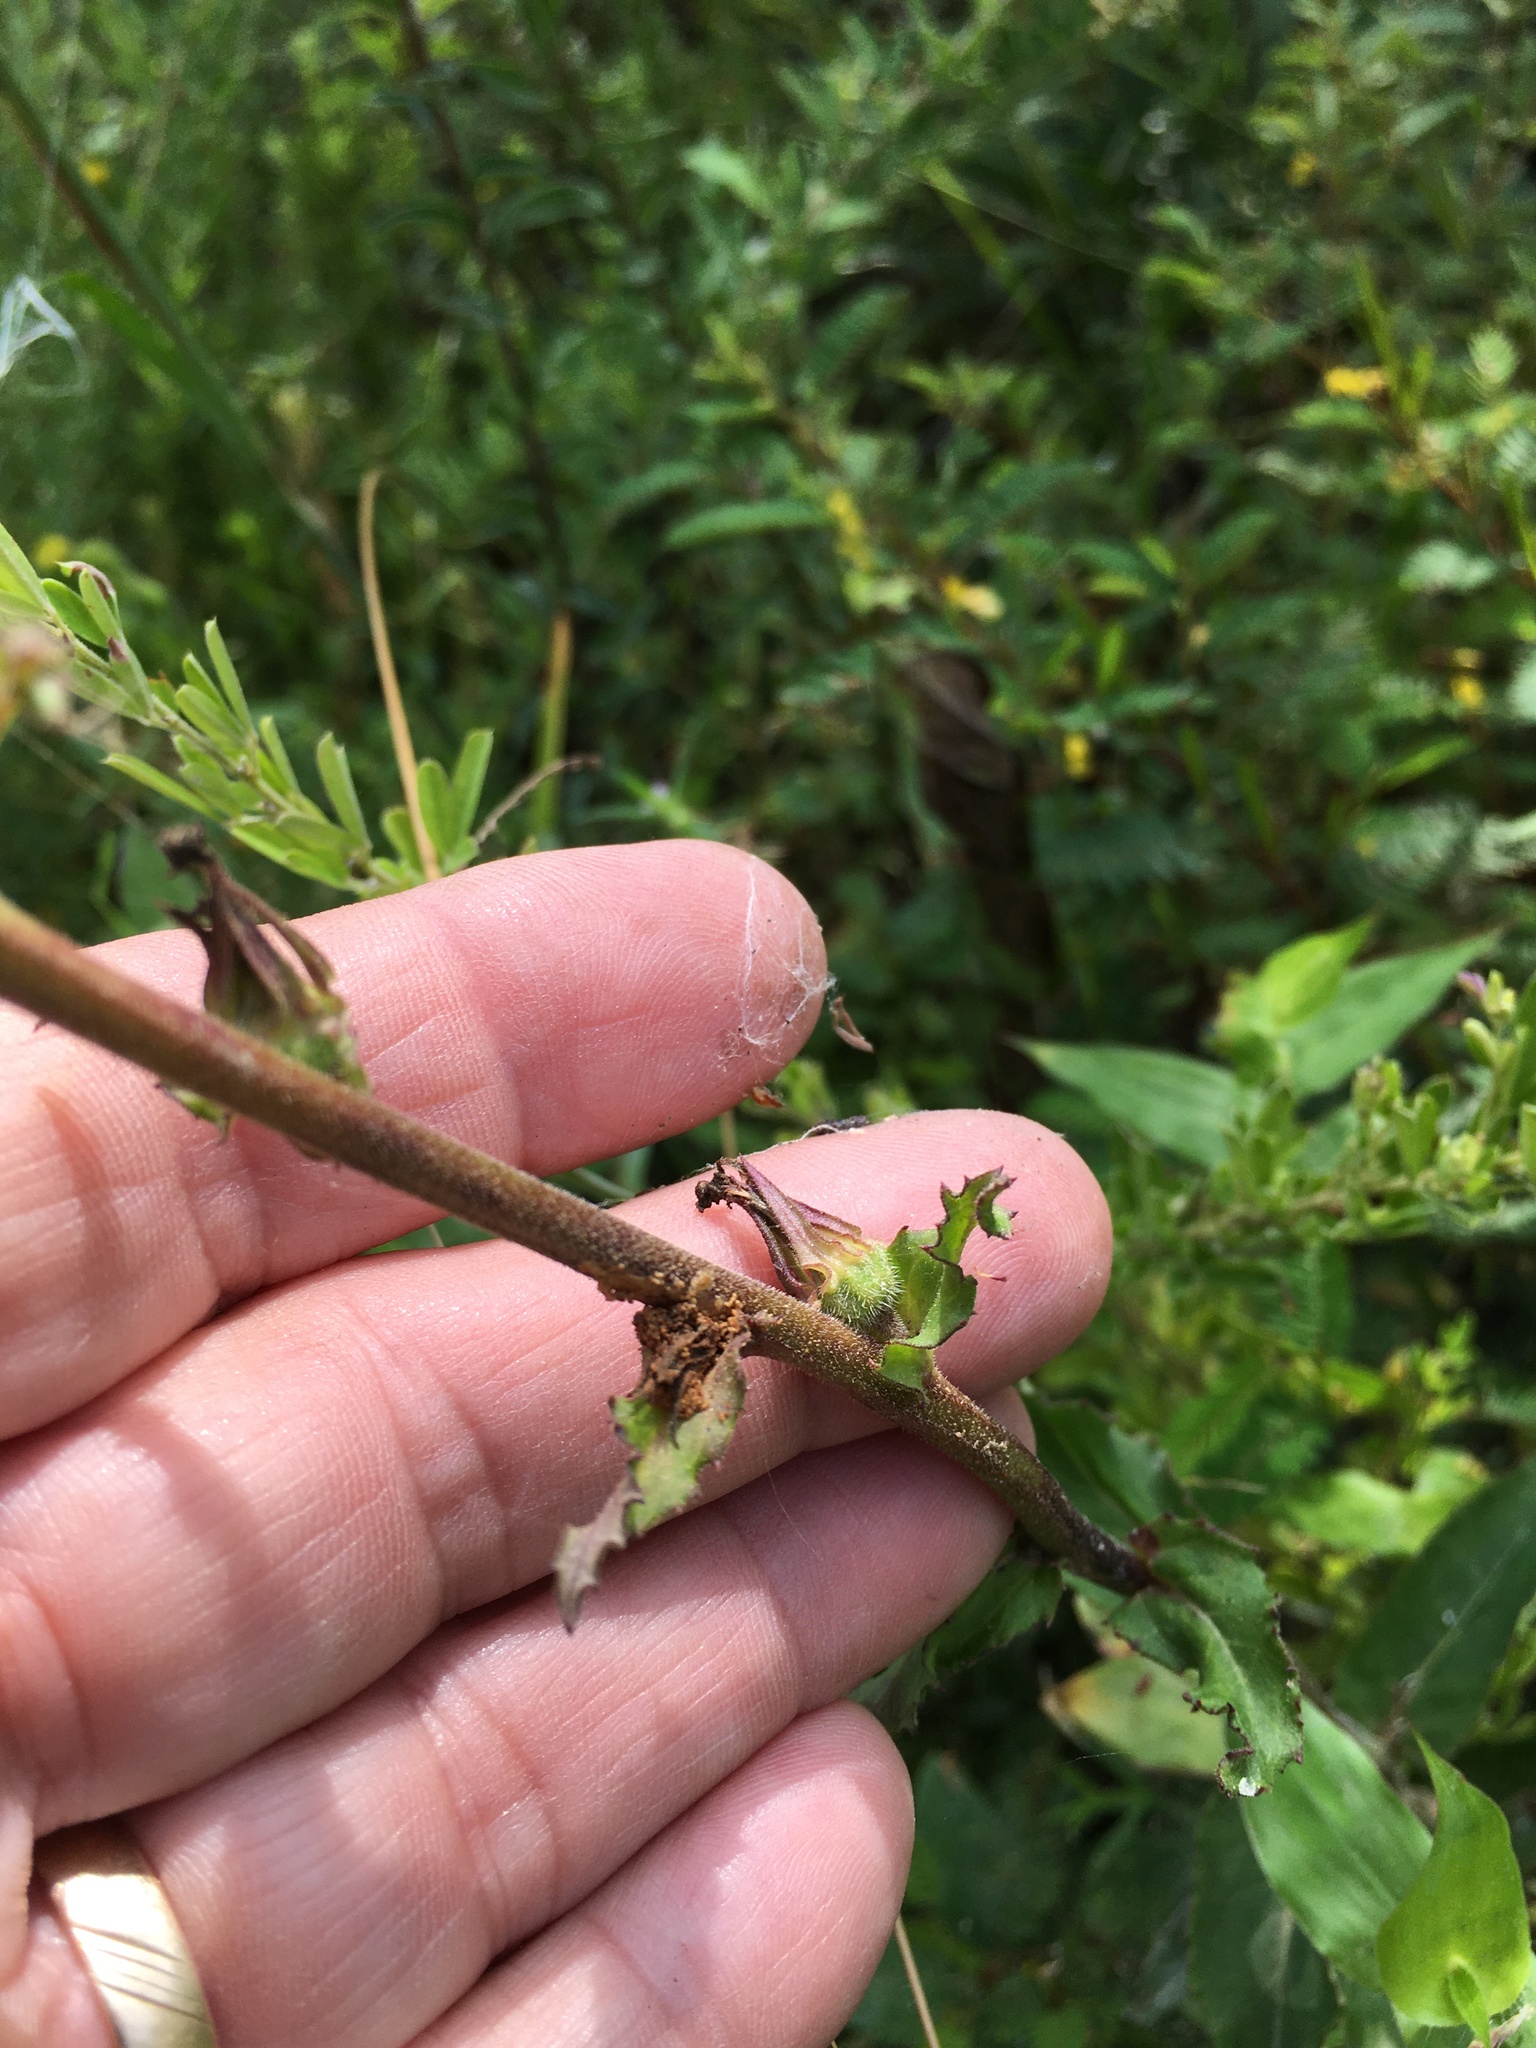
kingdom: Plantae
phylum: Tracheophyta
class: Magnoliopsida
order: Asterales
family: Campanulaceae
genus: Lobelia
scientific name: Lobelia puberula
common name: Purple dewdrop
